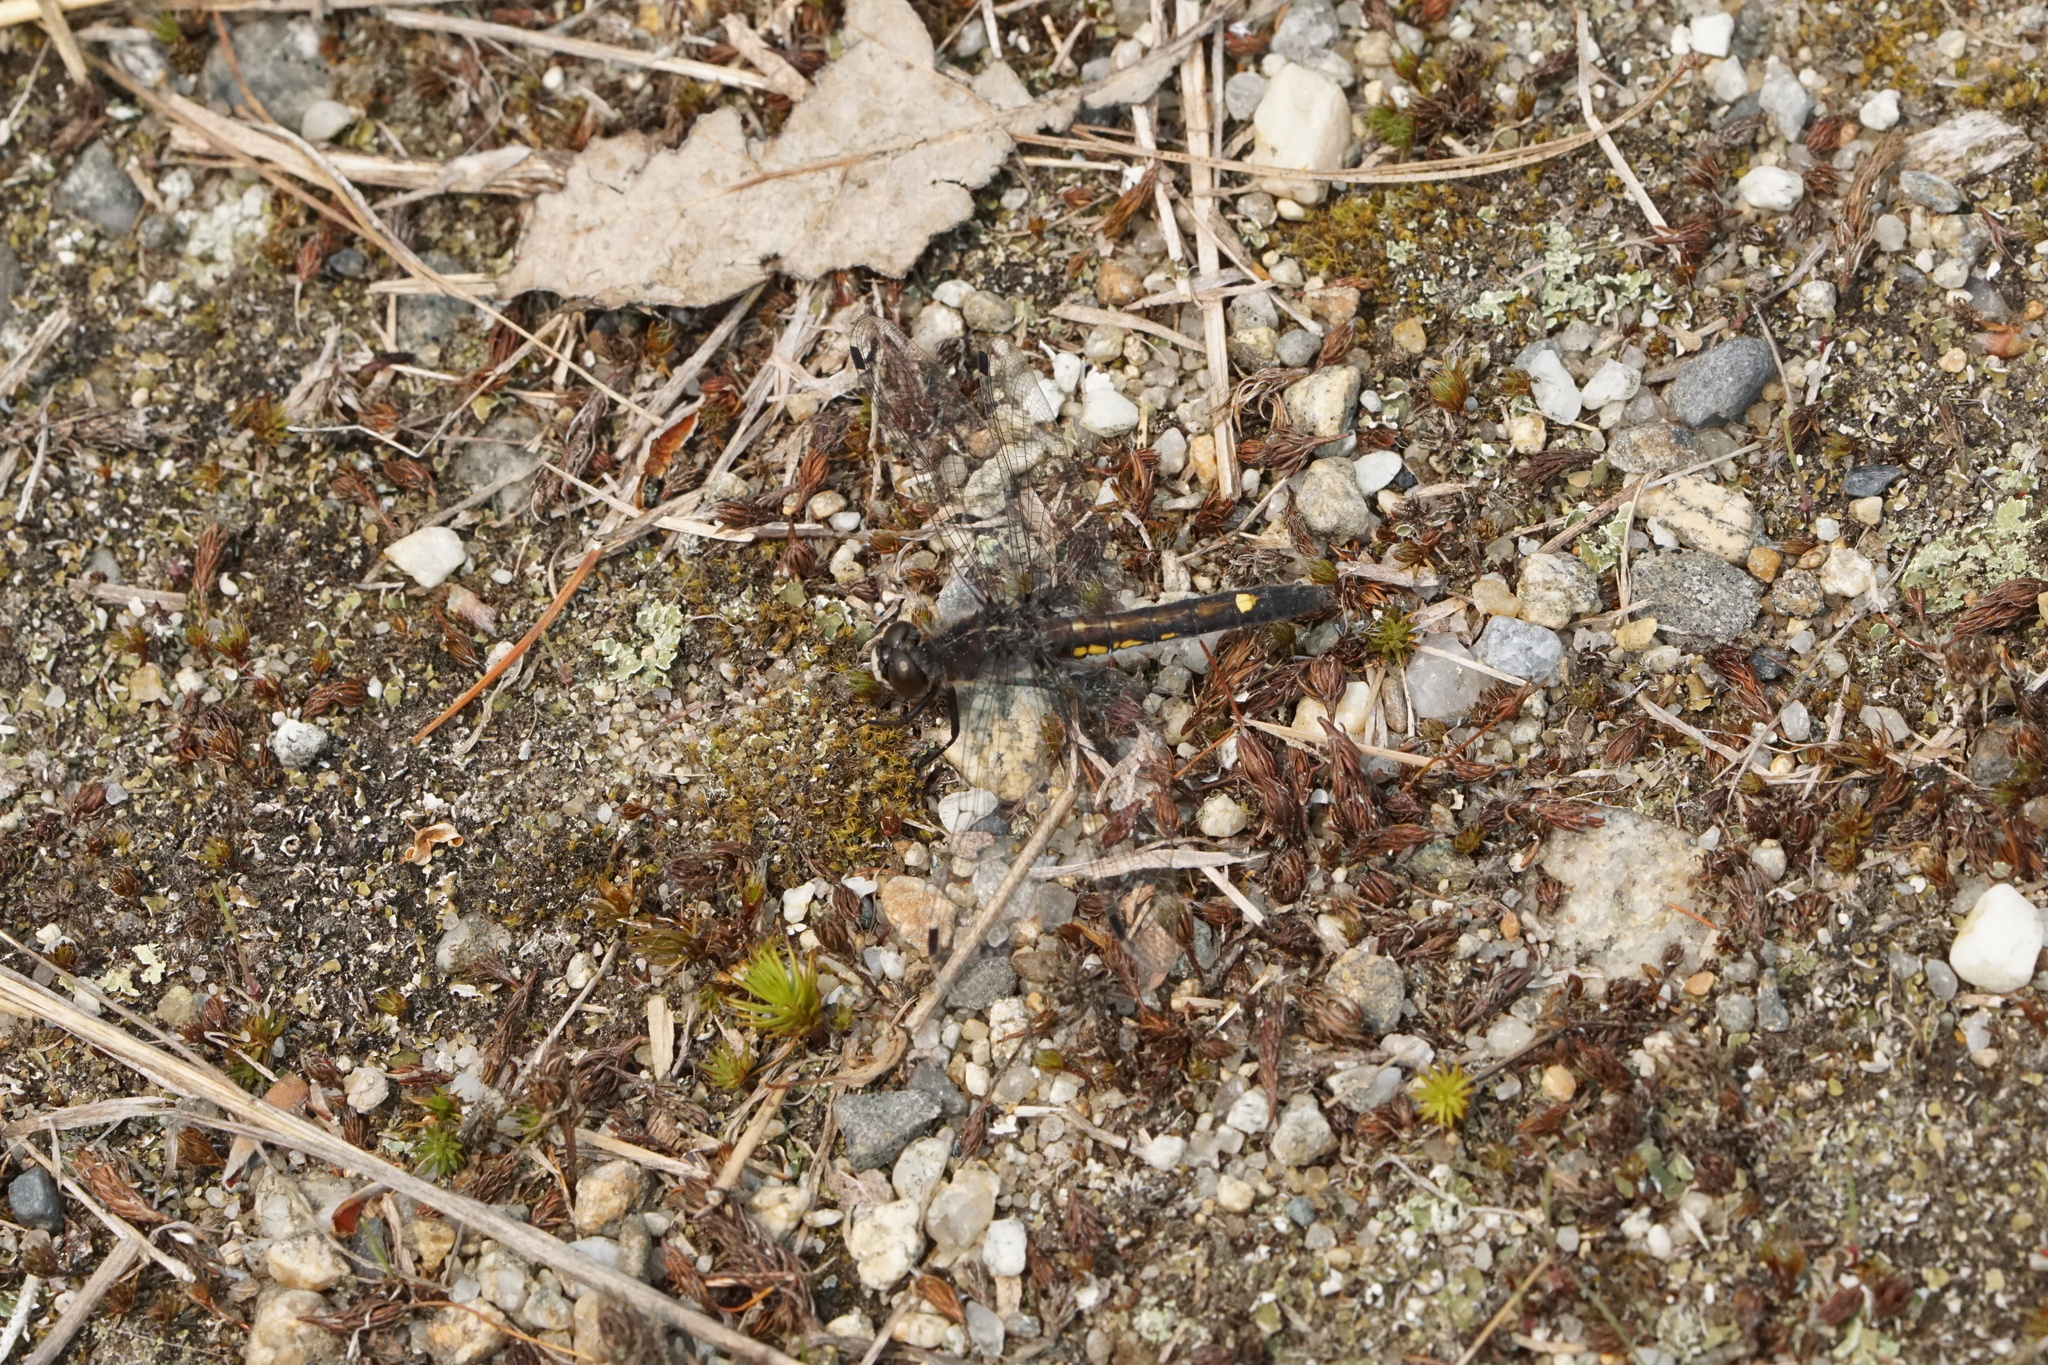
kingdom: Animalia
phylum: Arthropoda
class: Insecta
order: Odonata
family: Libellulidae
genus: Leucorrhinia
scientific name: Leucorrhinia intacta
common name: Dot-tailed whiteface
